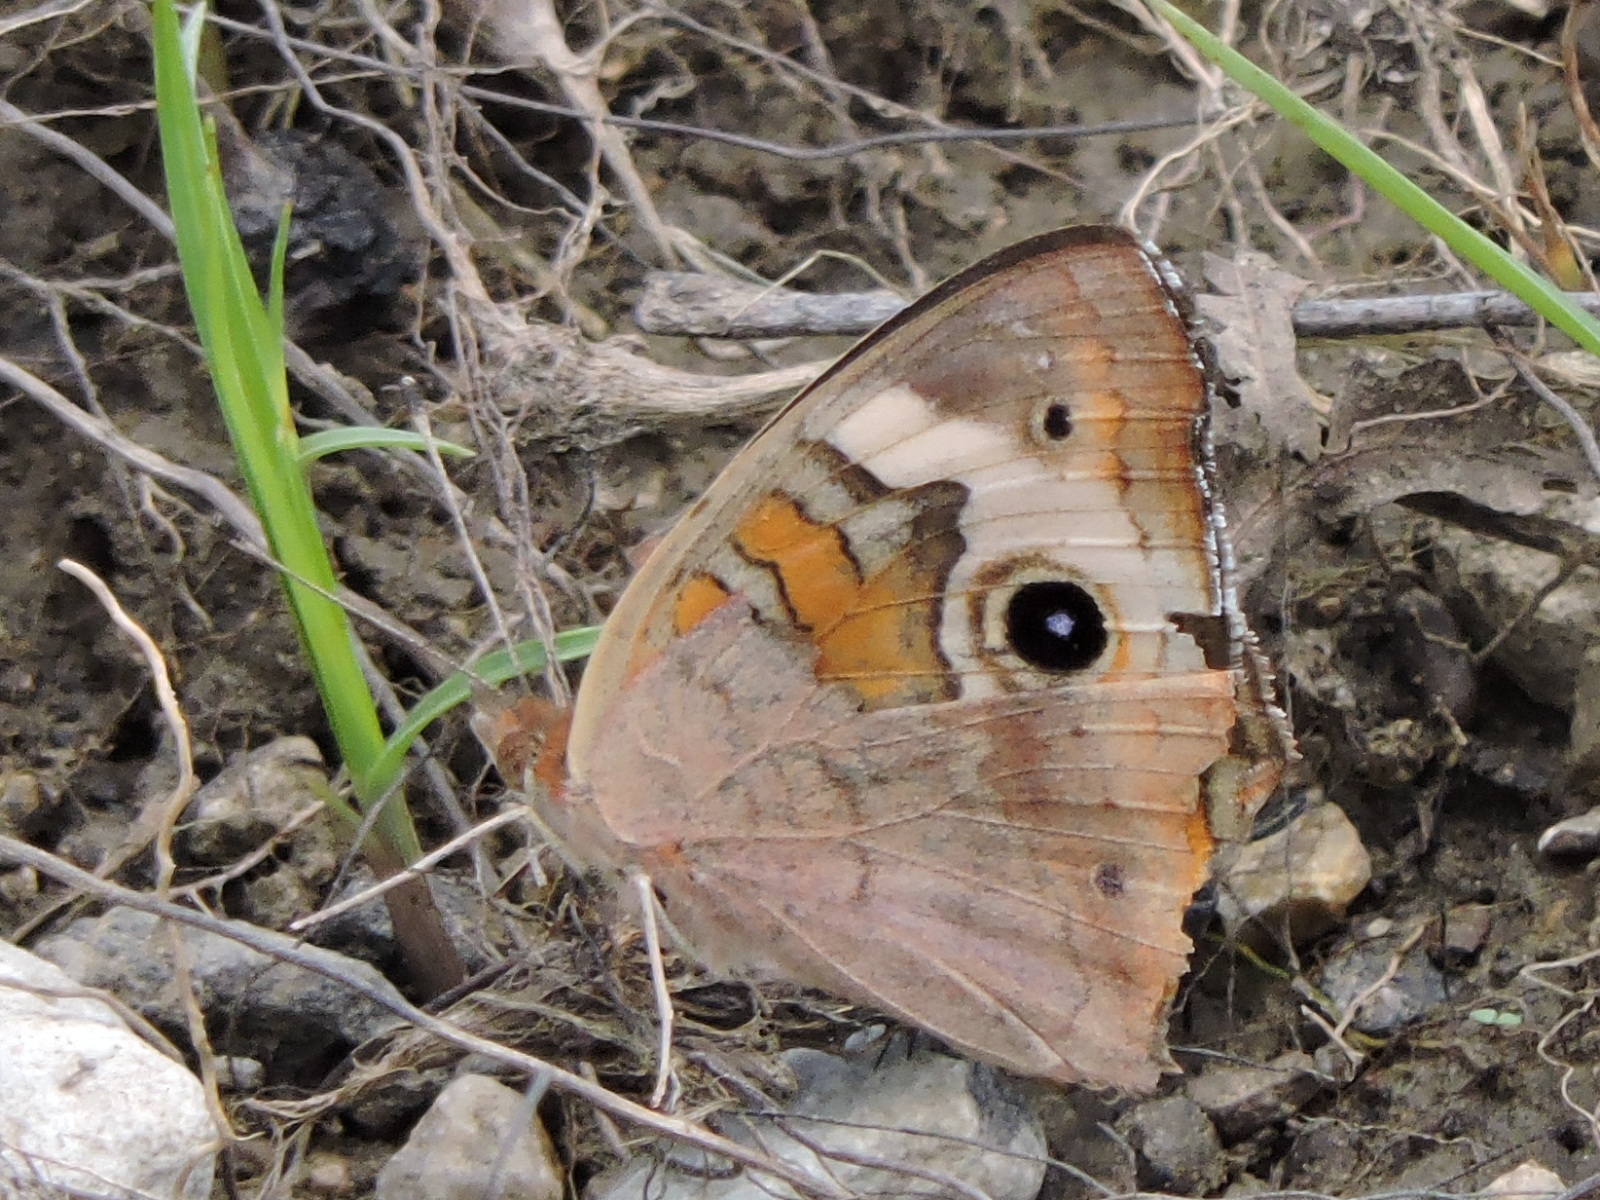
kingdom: Animalia
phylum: Arthropoda
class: Insecta
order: Lepidoptera
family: Nymphalidae
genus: Junonia
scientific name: Junonia coenia
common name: Common buckeye
